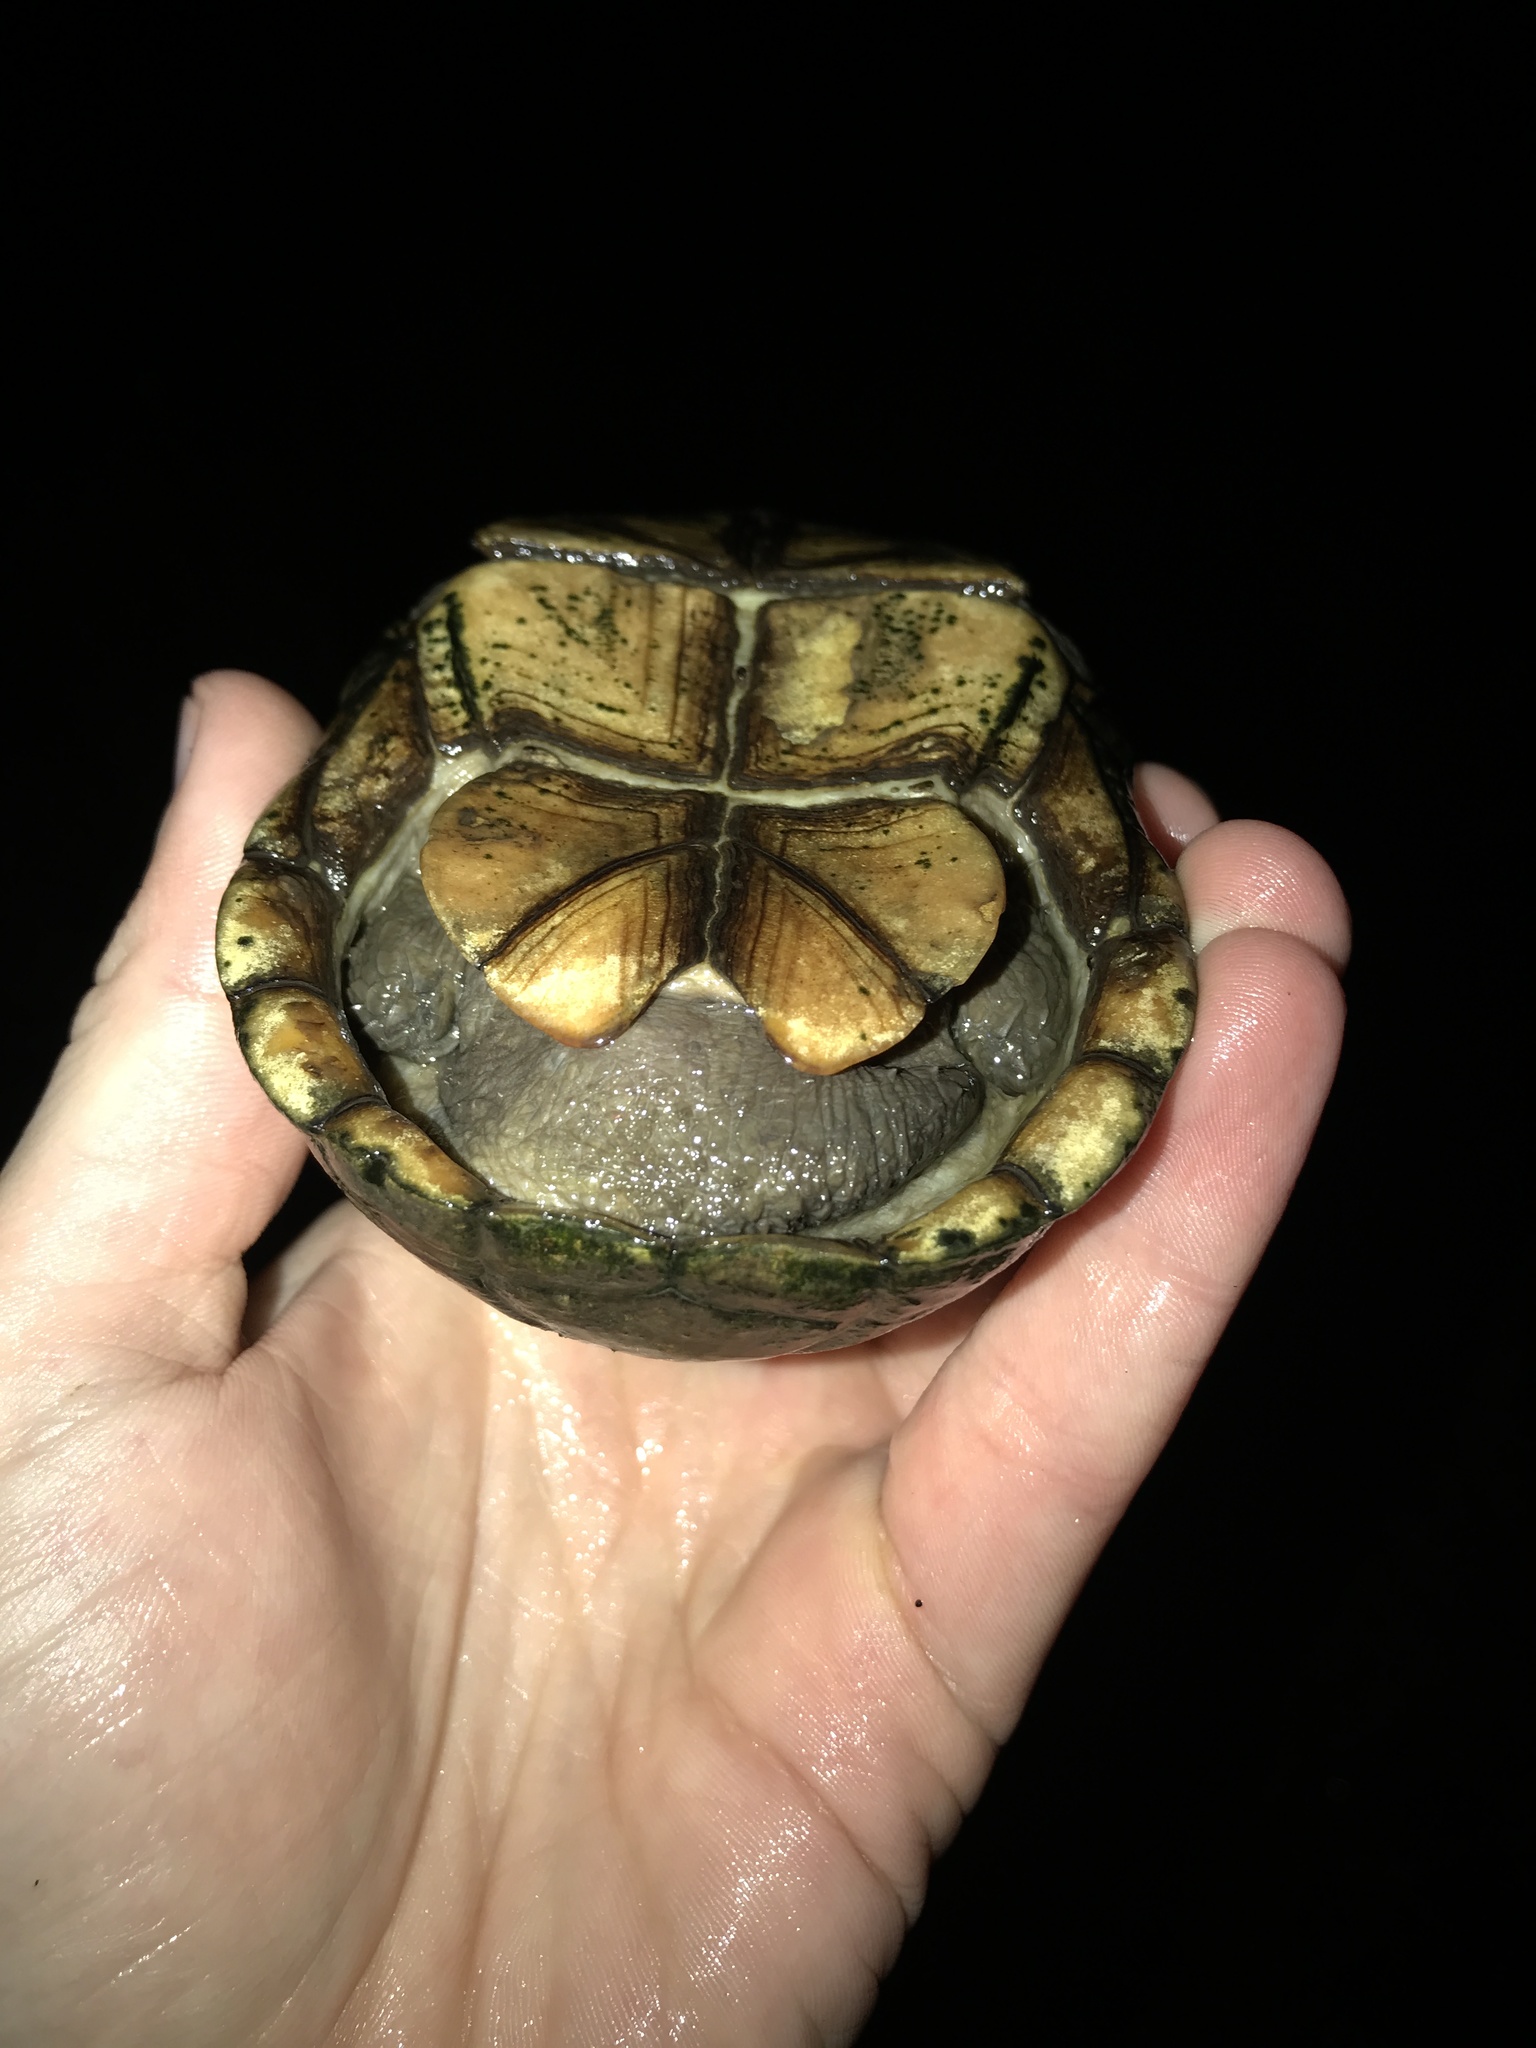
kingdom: Animalia
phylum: Chordata
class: Testudines
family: Kinosternidae
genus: Kinosternon
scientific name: Kinosternon subrubrum
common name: Eastern mud turtle
